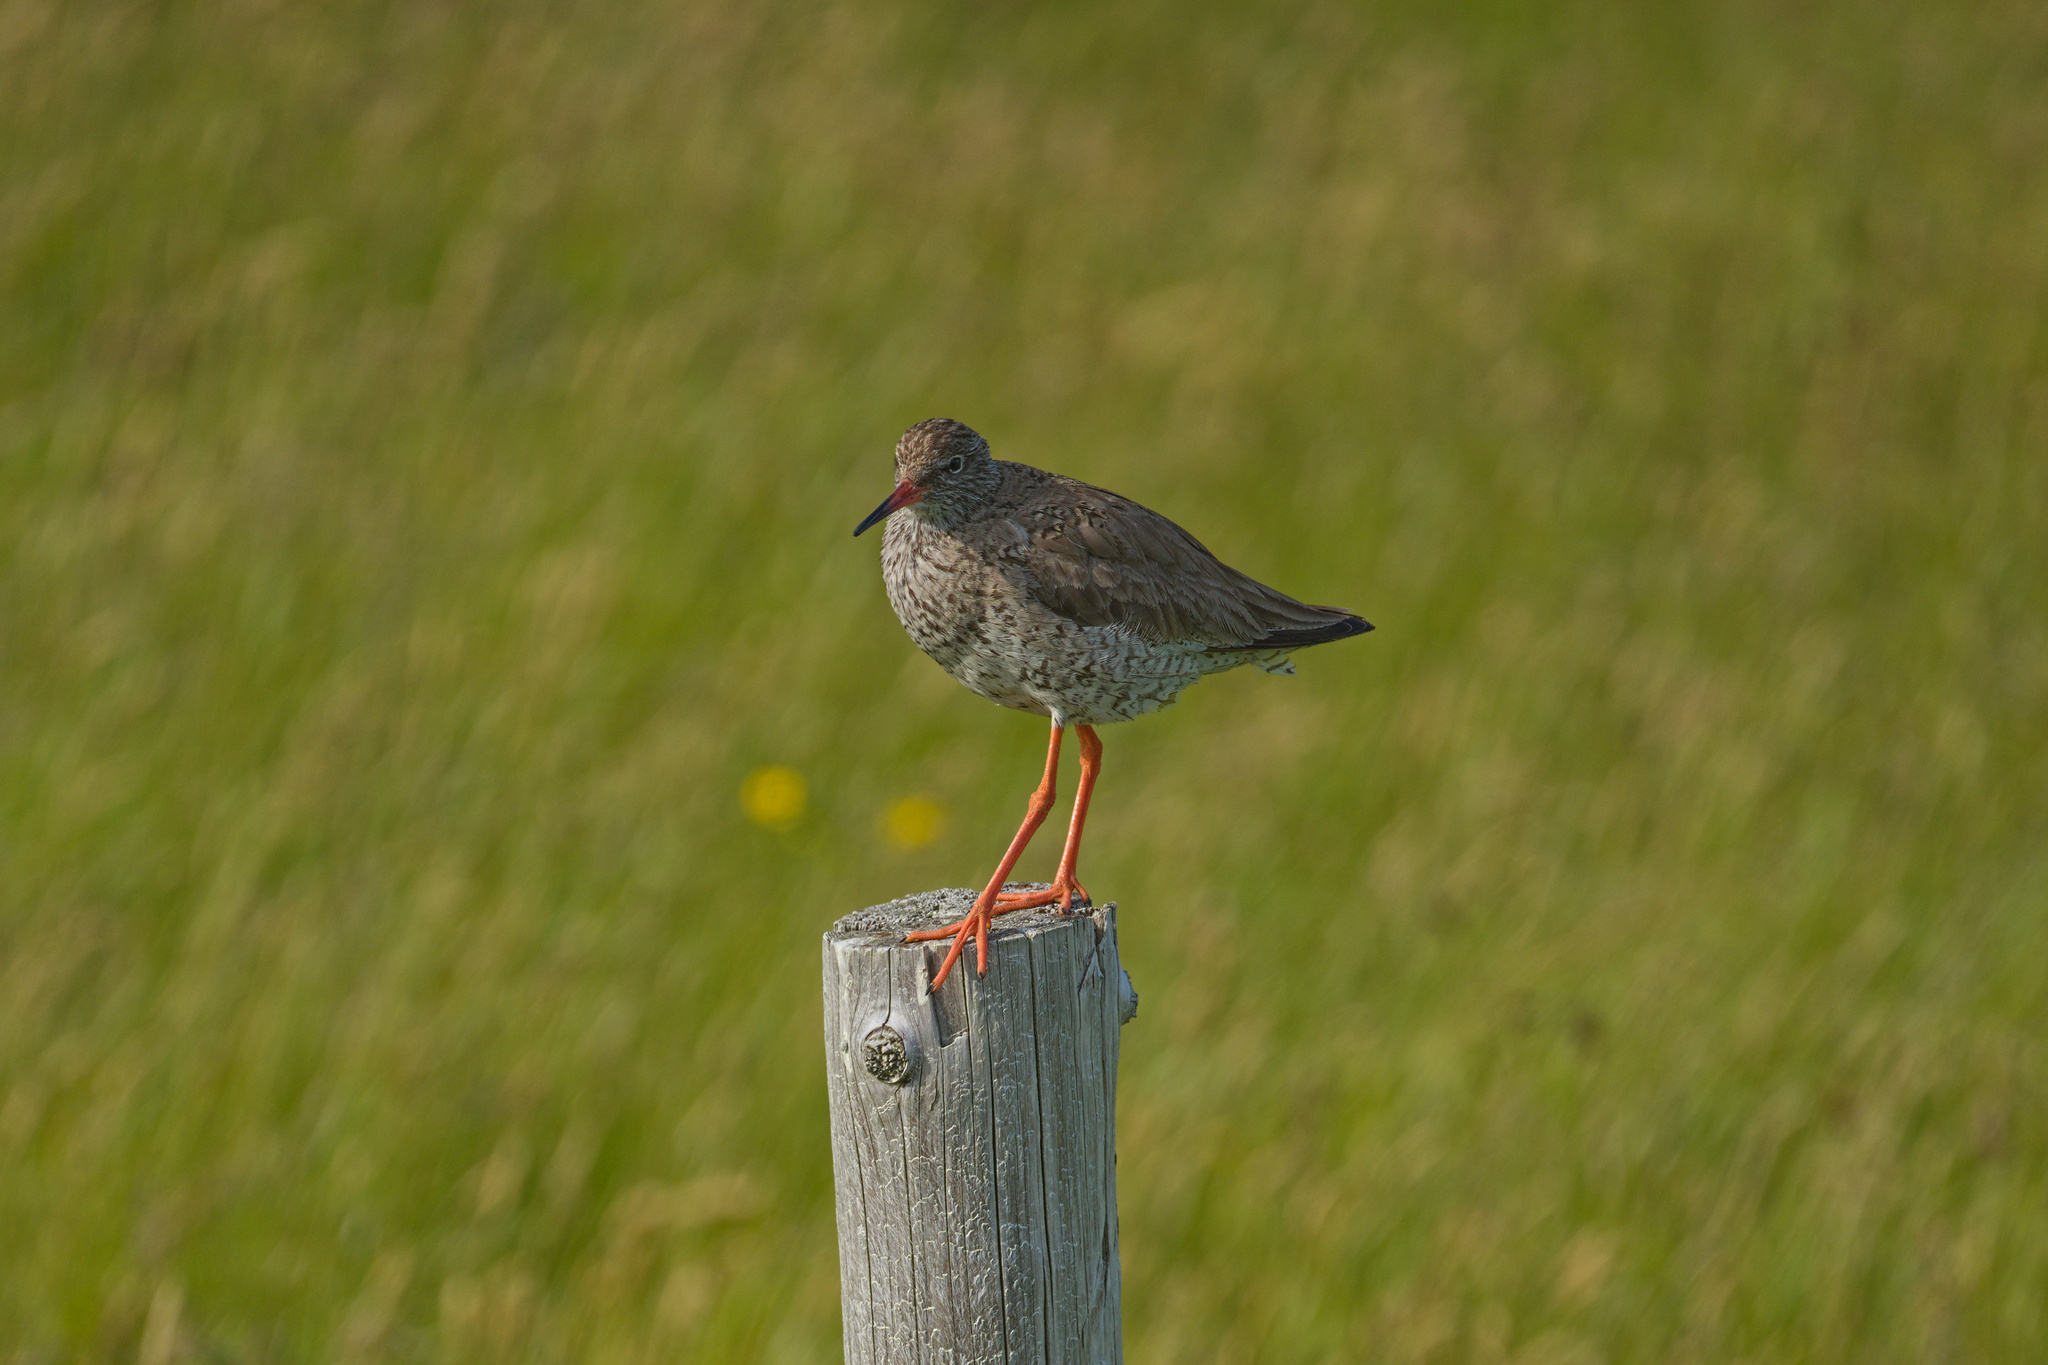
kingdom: Animalia
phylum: Chordata
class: Aves
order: Charadriiformes
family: Scolopacidae
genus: Tringa
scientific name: Tringa totanus
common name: Common redshank
